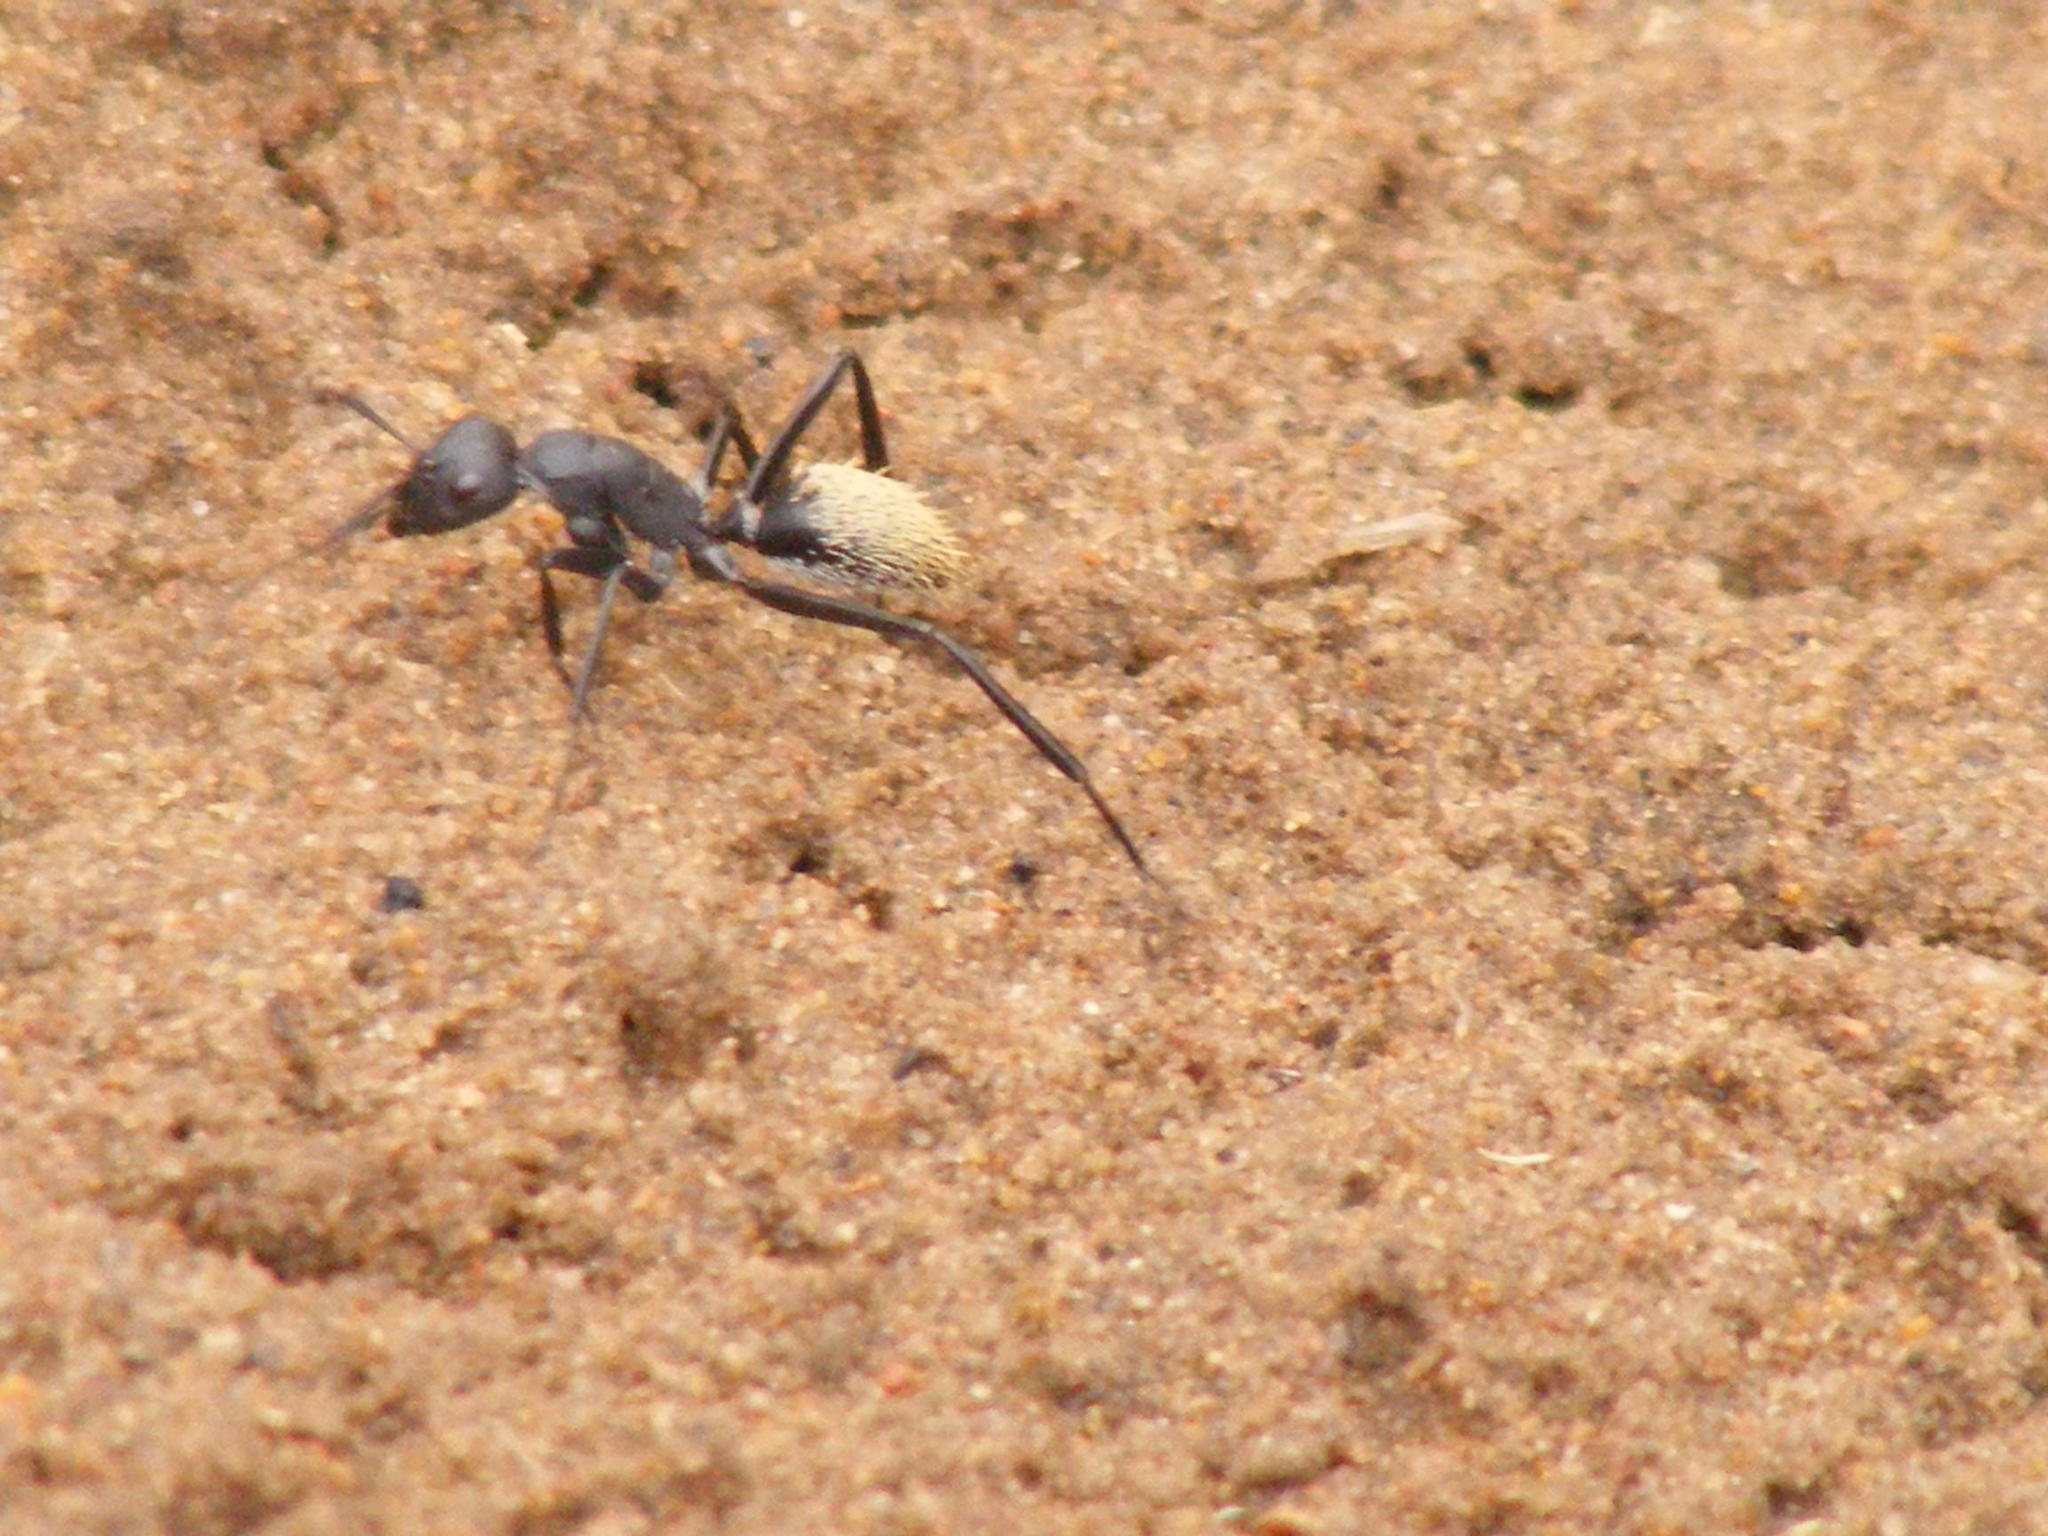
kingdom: Animalia
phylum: Arthropoda
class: Insecta
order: Hymenoptera
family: Formicidae
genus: Camponotus
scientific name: Camponotus fulvopilosus
